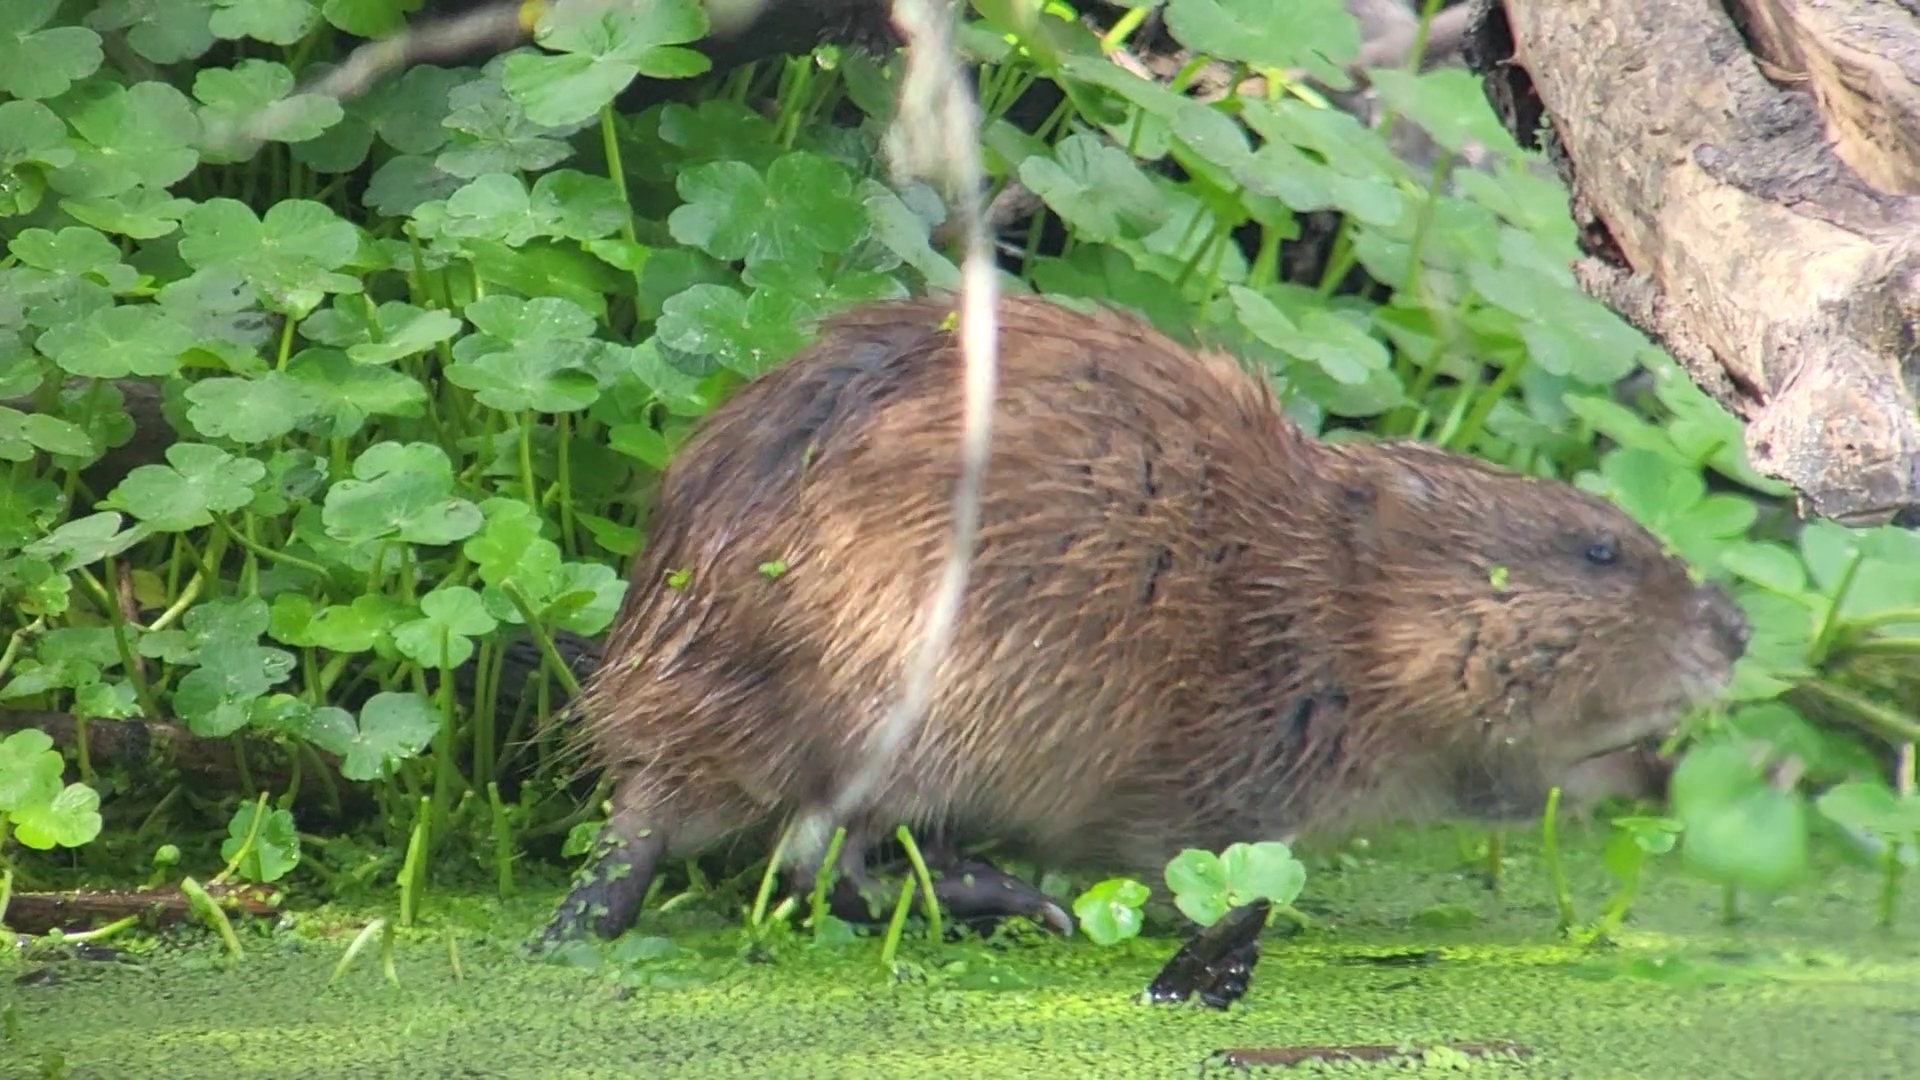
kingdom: Animalia
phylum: Chordata
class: Mammalia
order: Rodentia
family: Cricetidae
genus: Ondatra
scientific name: Ondatra zibethicus
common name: Muskrat
